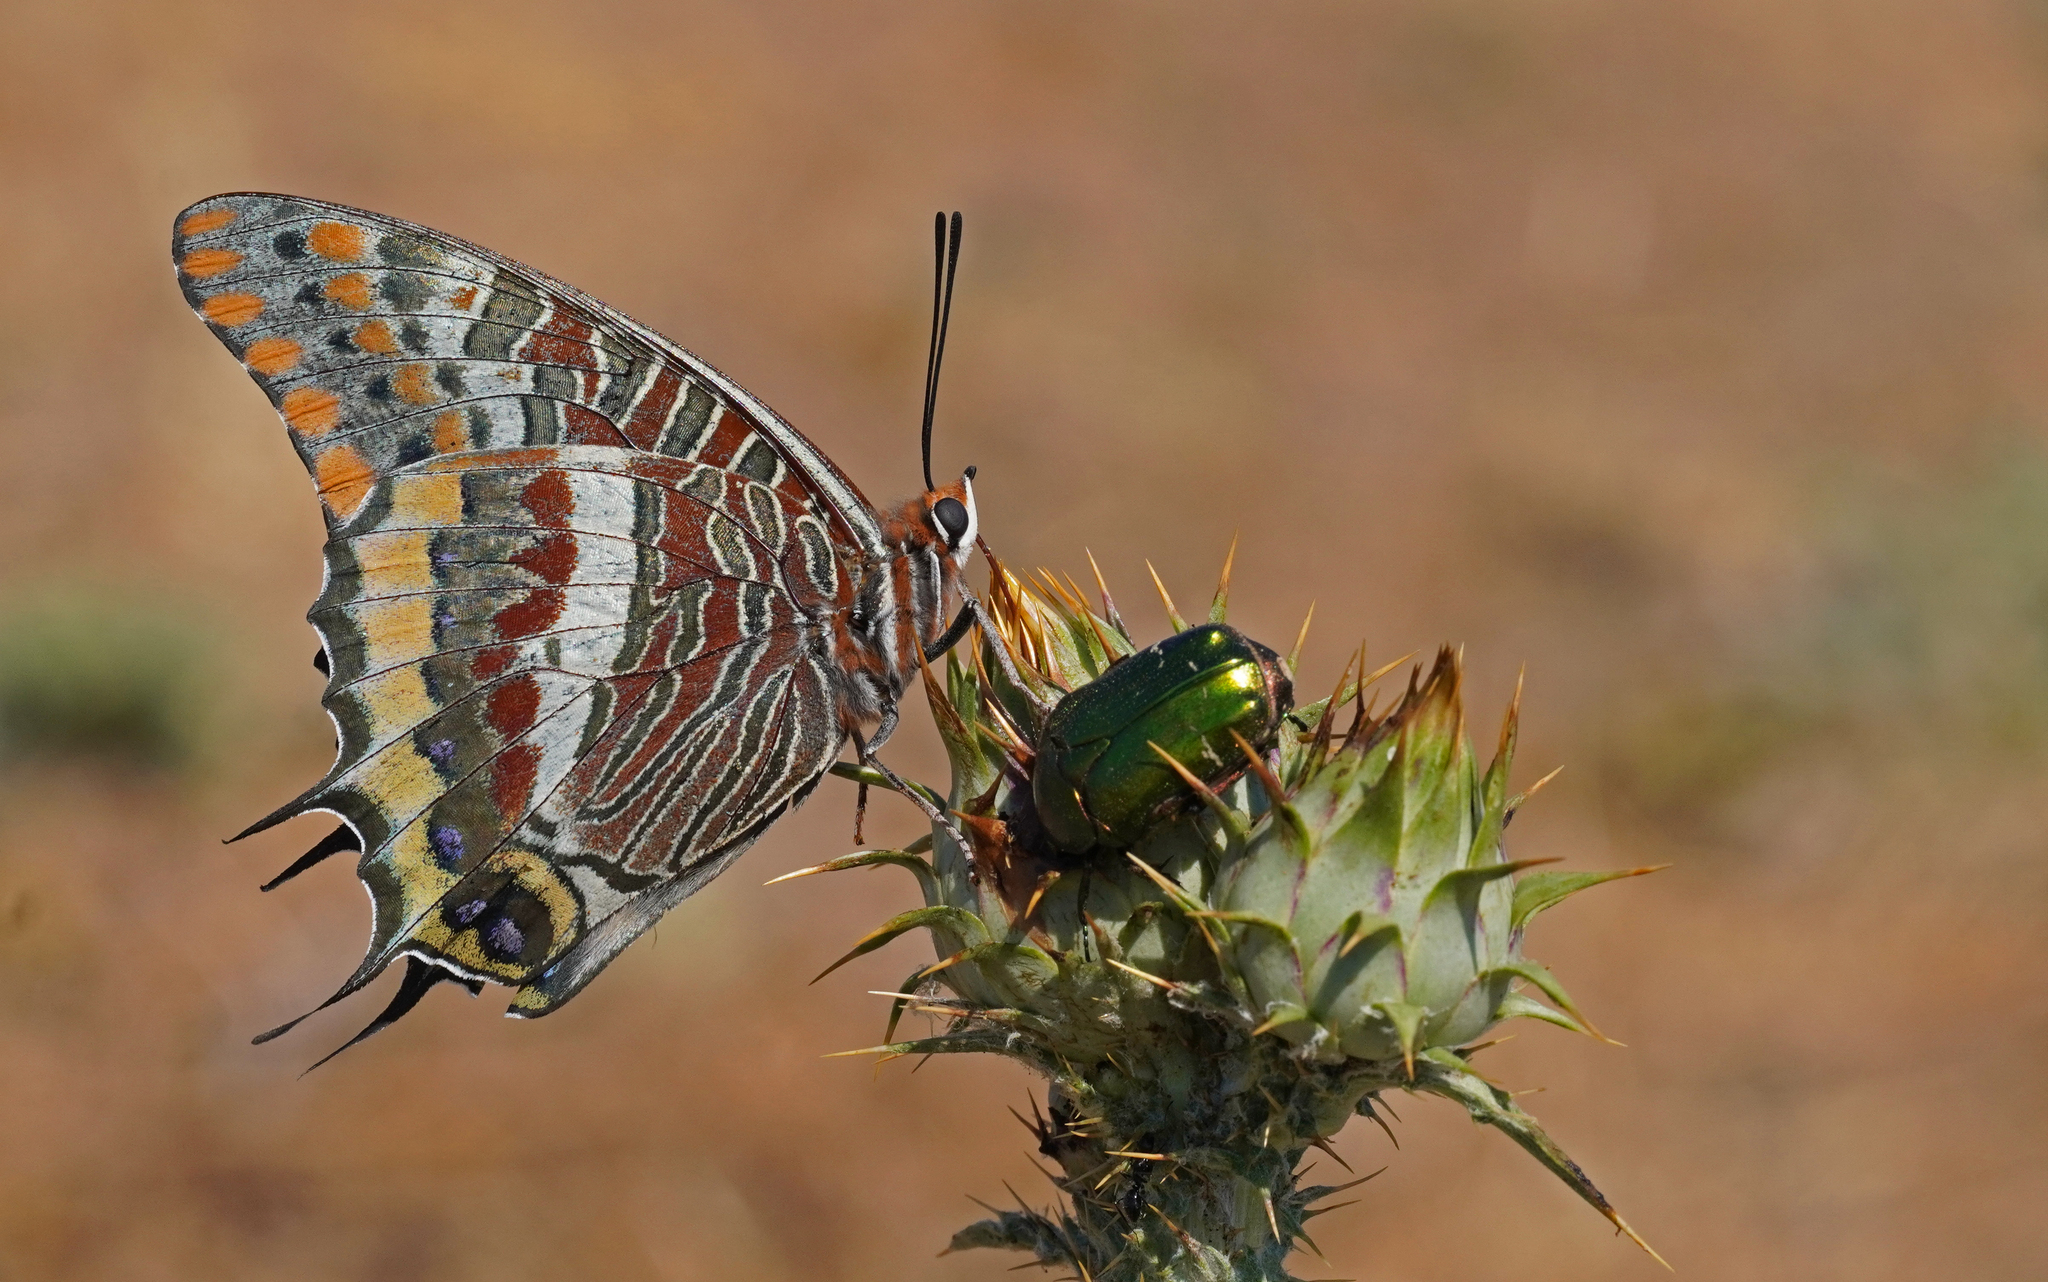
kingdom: Animalia
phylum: Arthropoda
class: Insecta
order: Lepidoptera
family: Nymphalidae
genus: Charaxes
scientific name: Charaxes jasius
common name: Two tailed pasha
